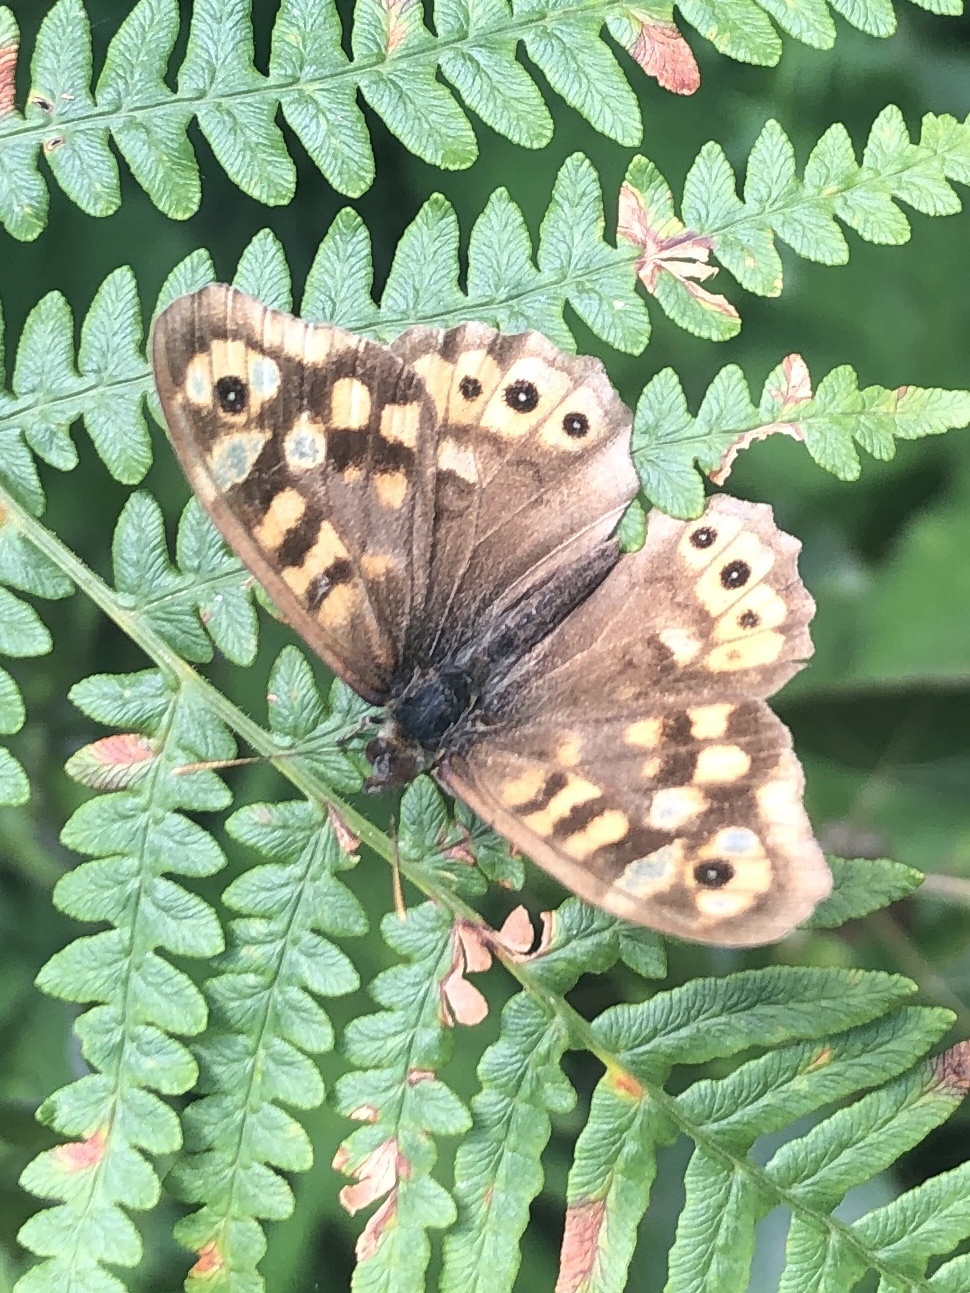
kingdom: Animalia
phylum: Arthropoda
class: Insecta
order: Lepidoptera
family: Nymphalidae
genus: Pararge
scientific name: Pararge aegeria
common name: Speckled wood
